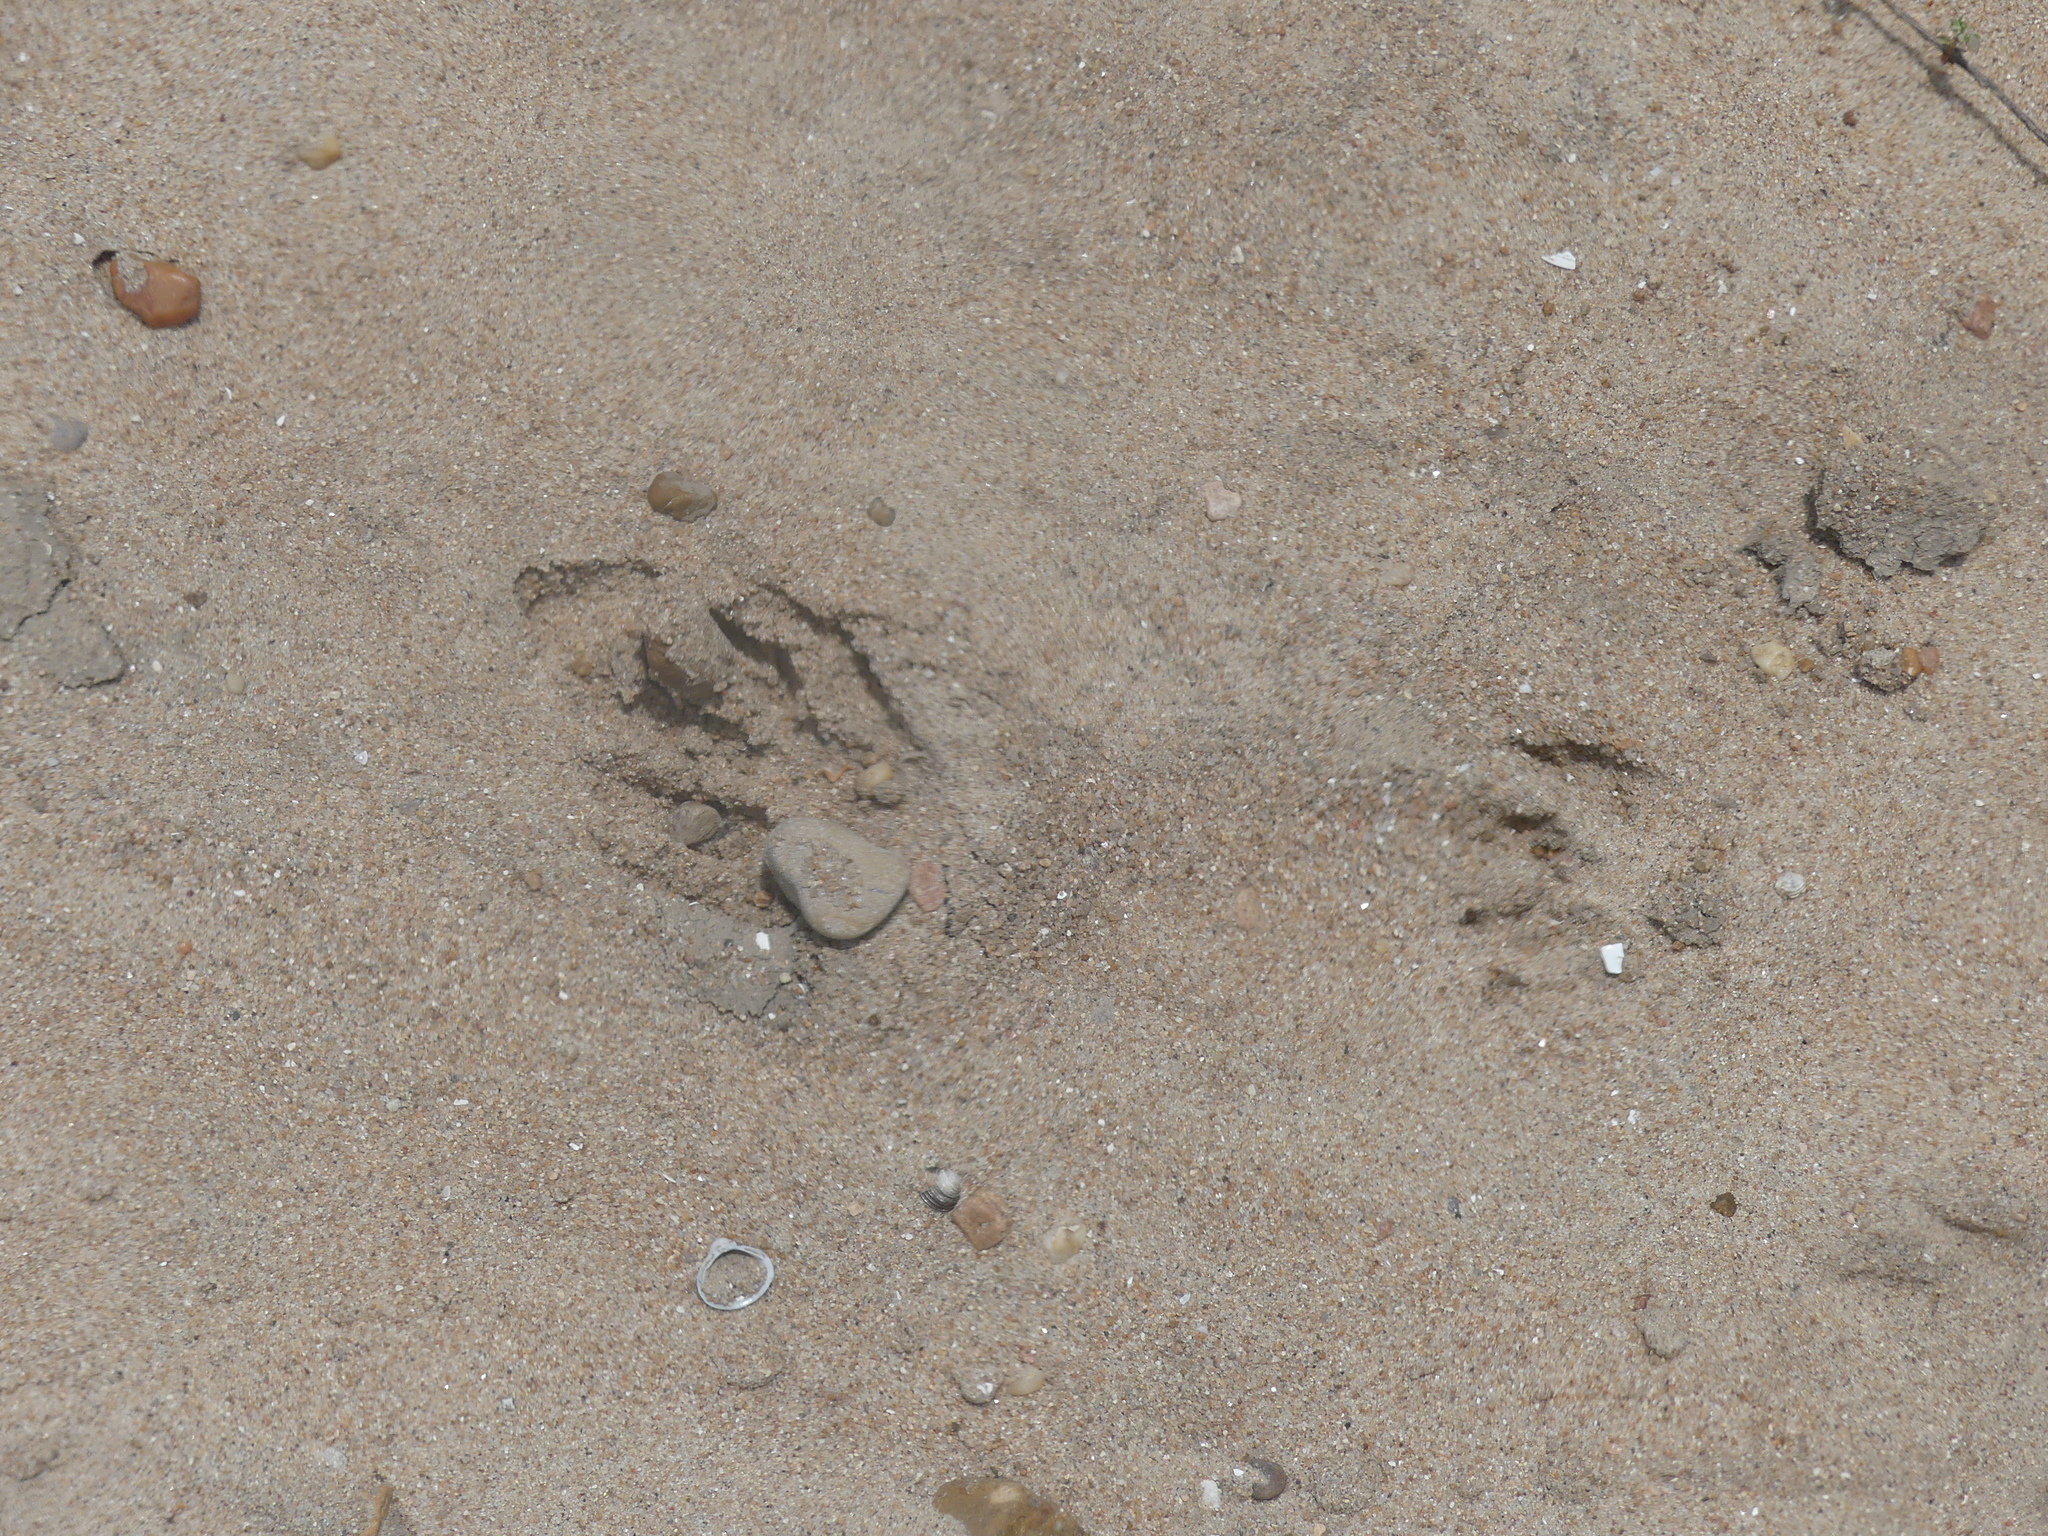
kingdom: Animalia
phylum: Chordata
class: Mammalia
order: Carnivora
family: Procyonidae
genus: Procyon
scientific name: Procyon lotor
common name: Raccoon
